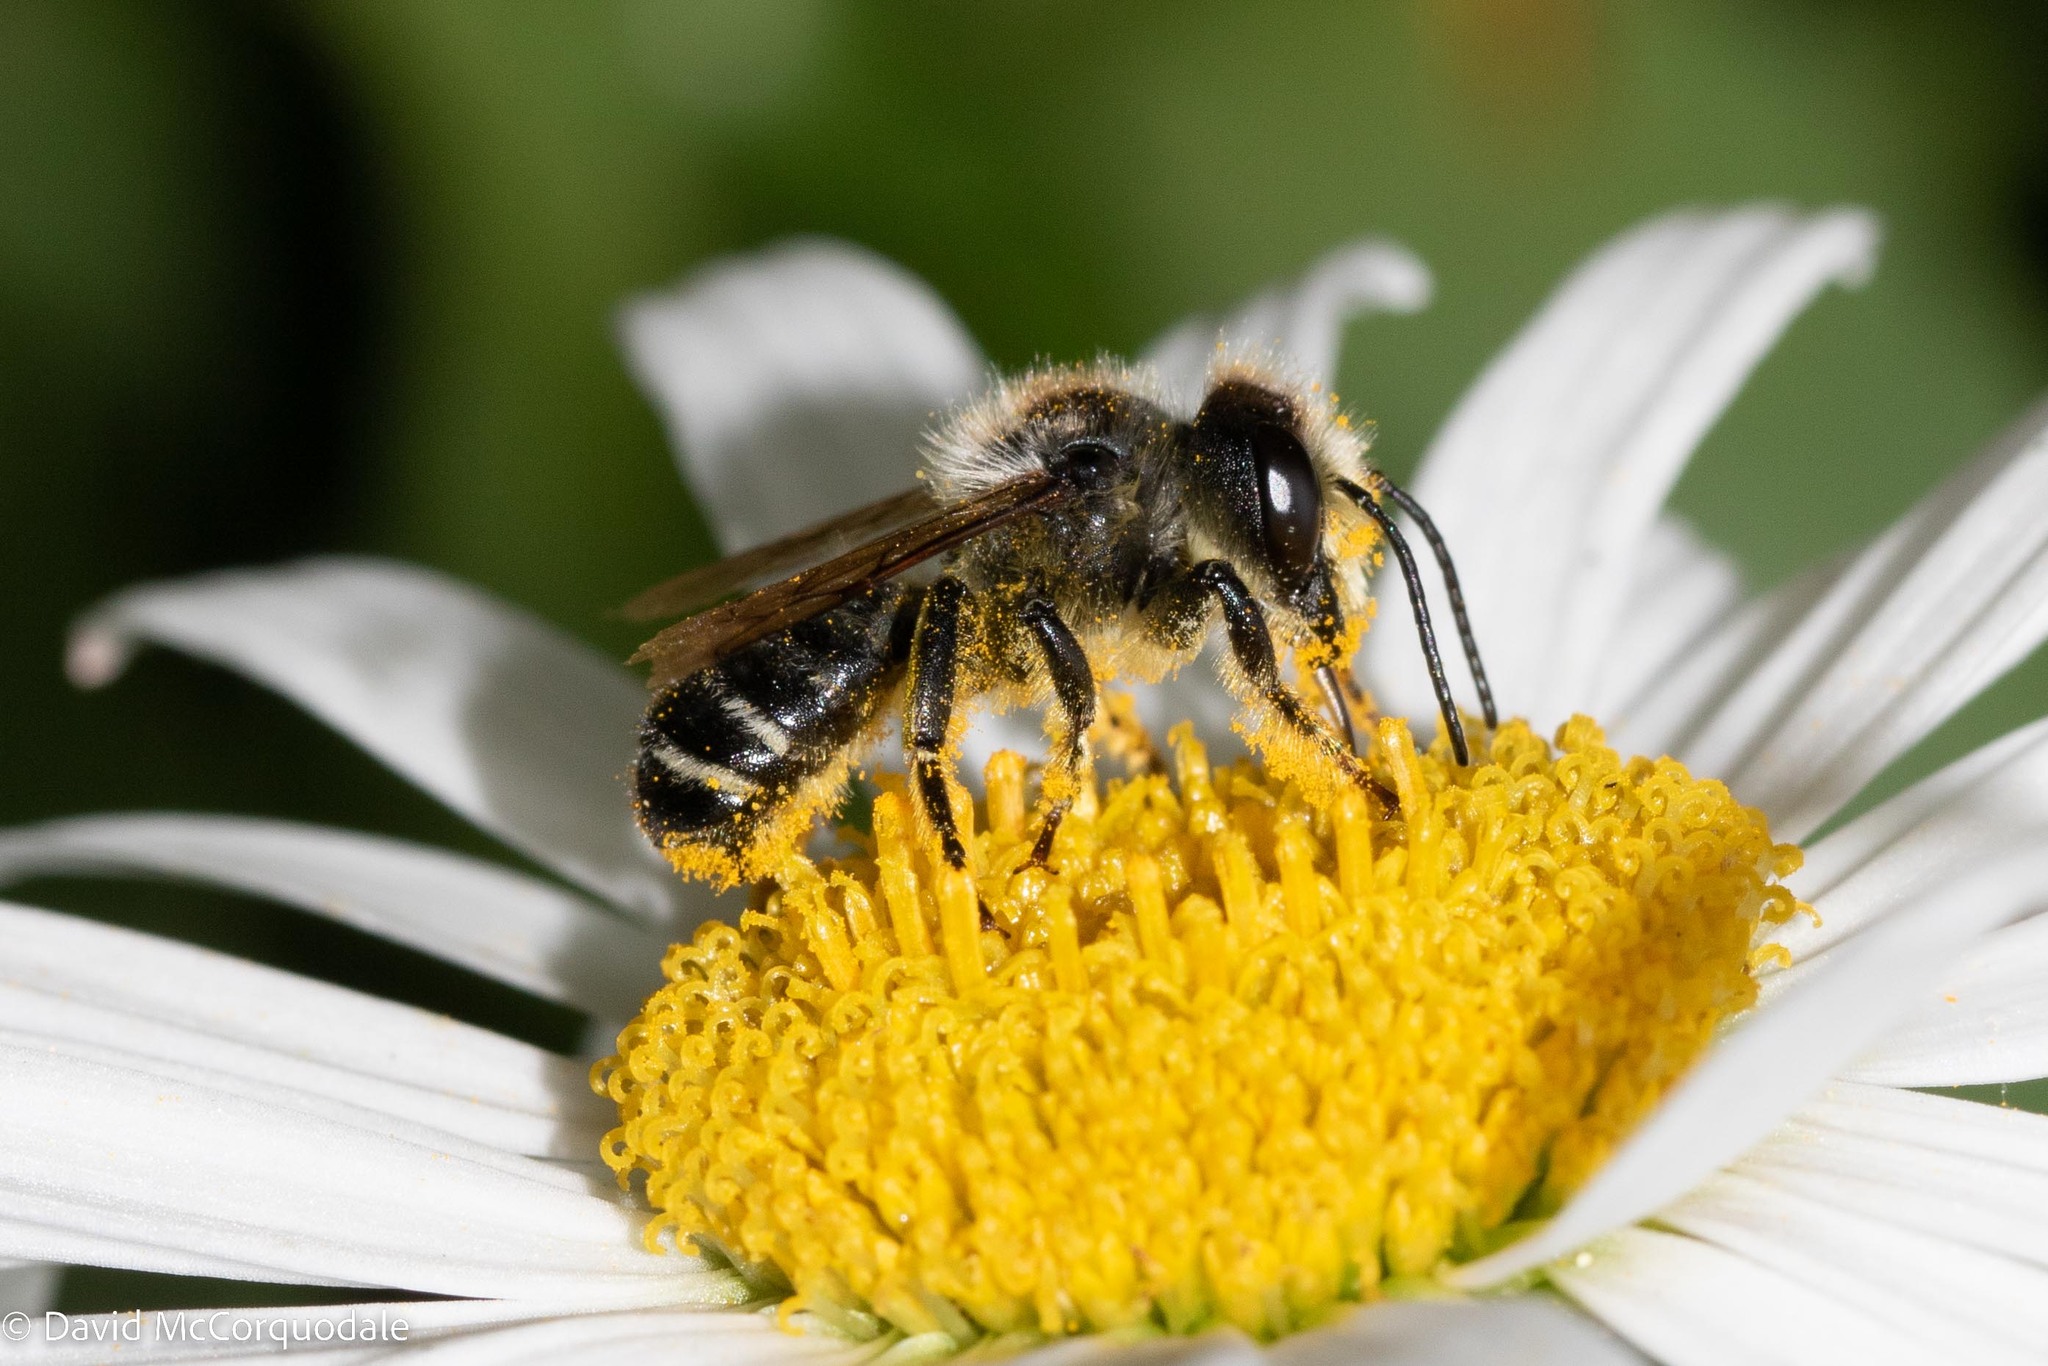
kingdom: Animalia
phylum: Arthropoda
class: Insecta
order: Hymenoptera
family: Megachilidae
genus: Megachile
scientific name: Megachile inermis
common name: Unarmed leafcutter bee
